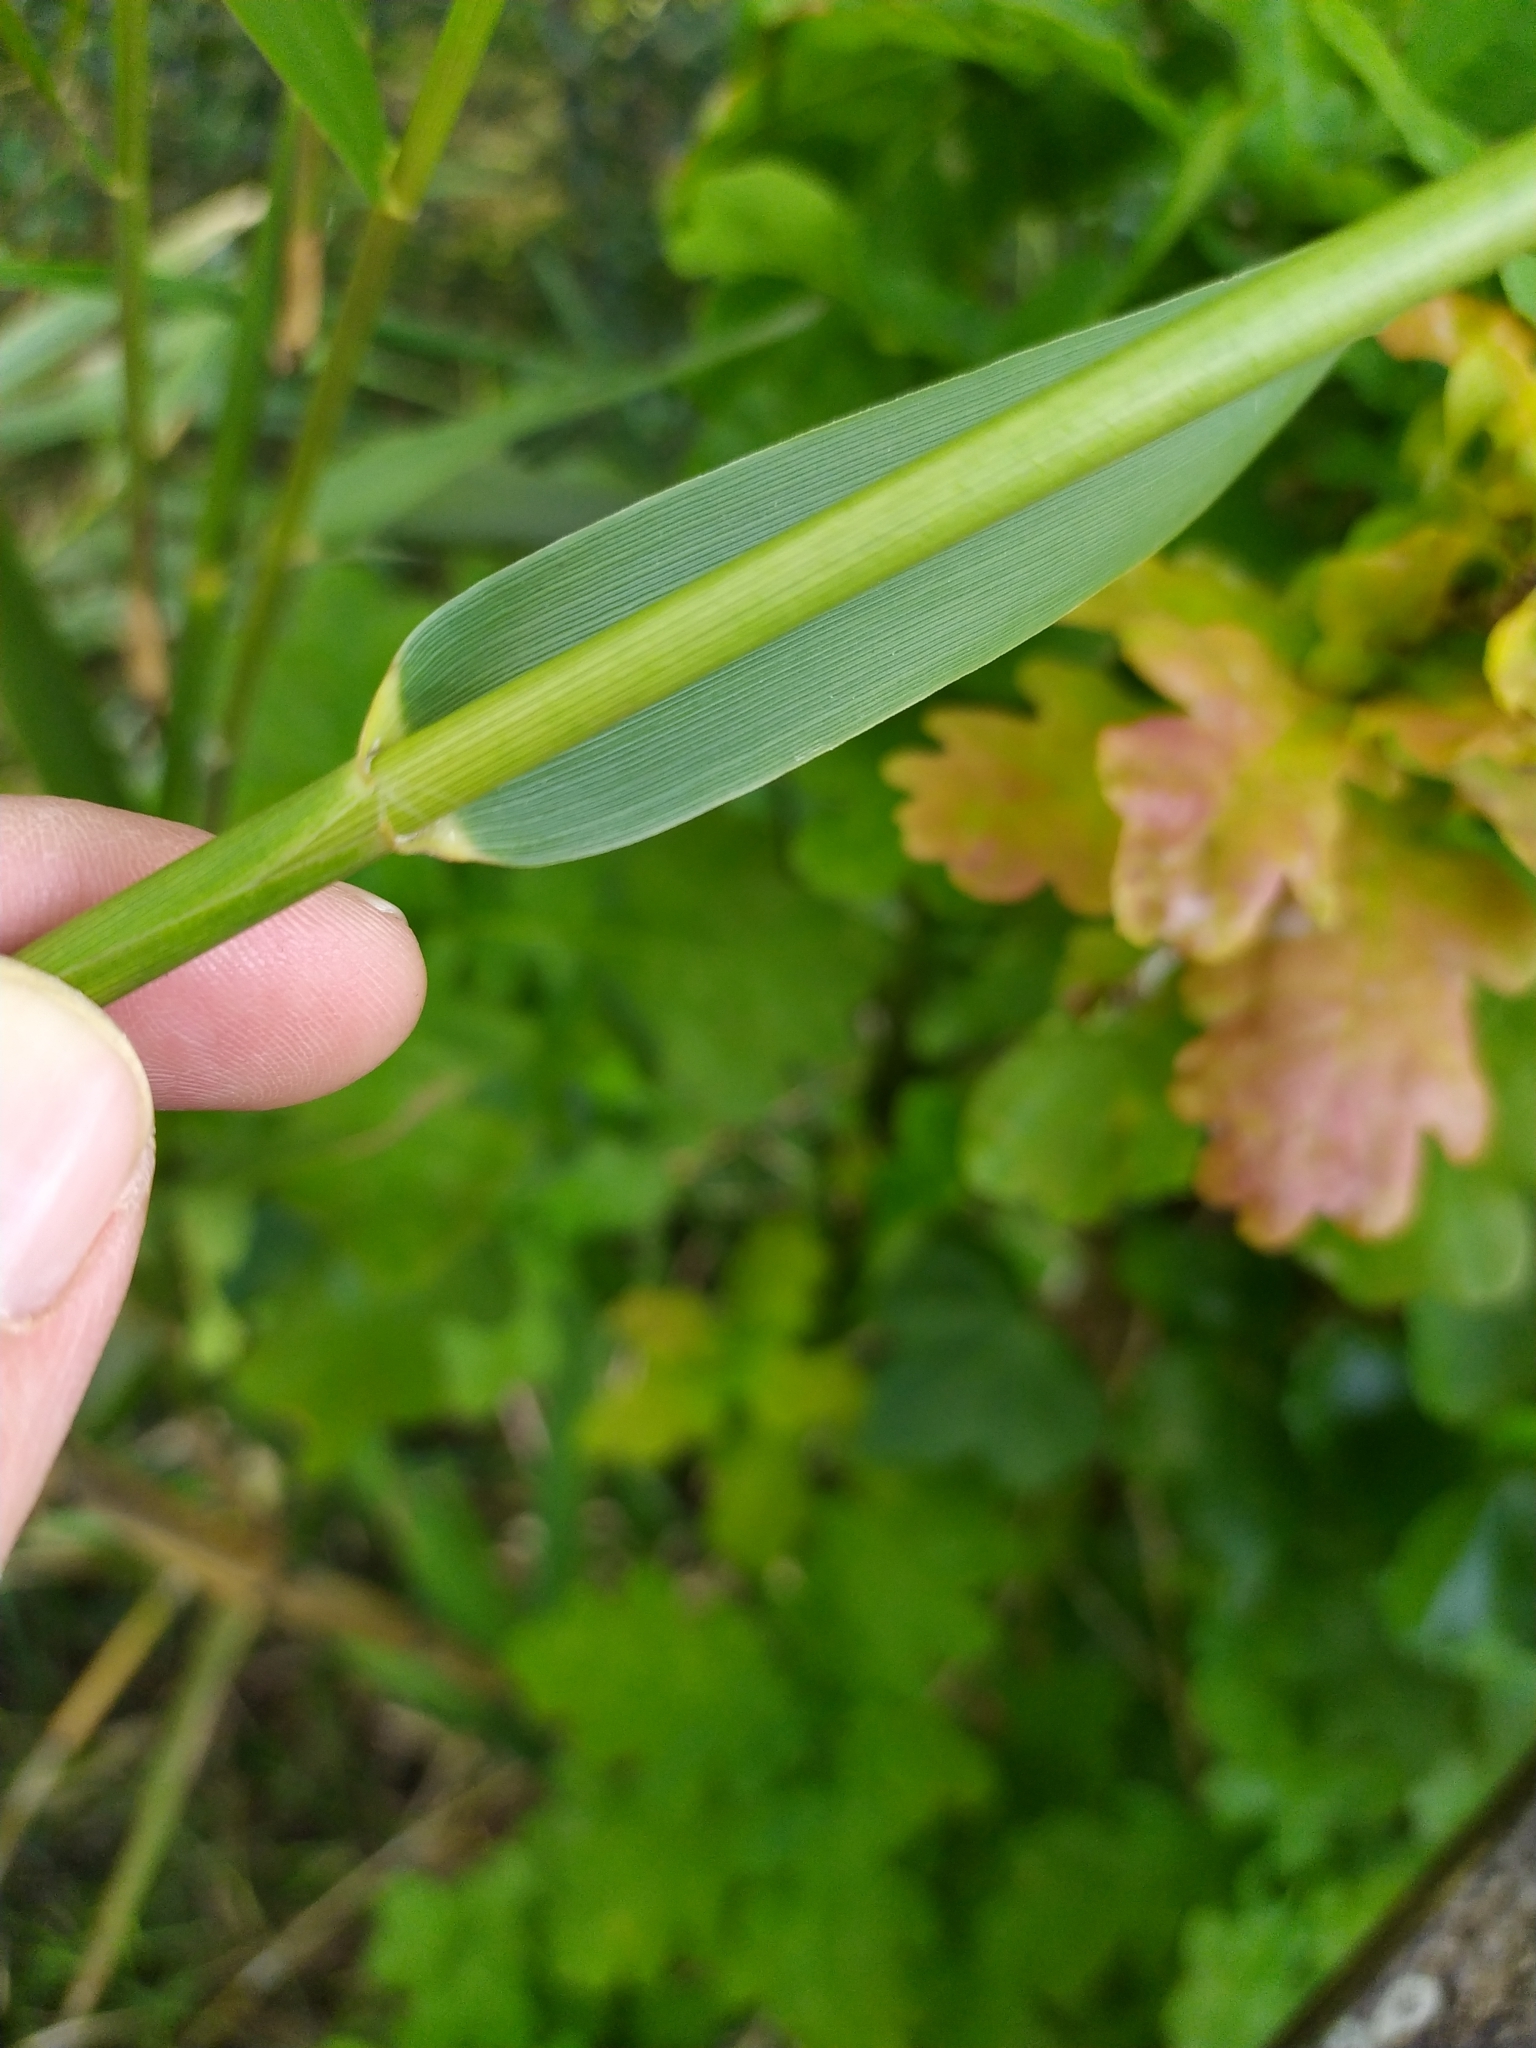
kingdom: Plantae
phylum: Tracheophyta
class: Liliopsida
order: Poales
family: Poaceae
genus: Phragmites
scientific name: Phragmites karka
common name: Tropical reed
